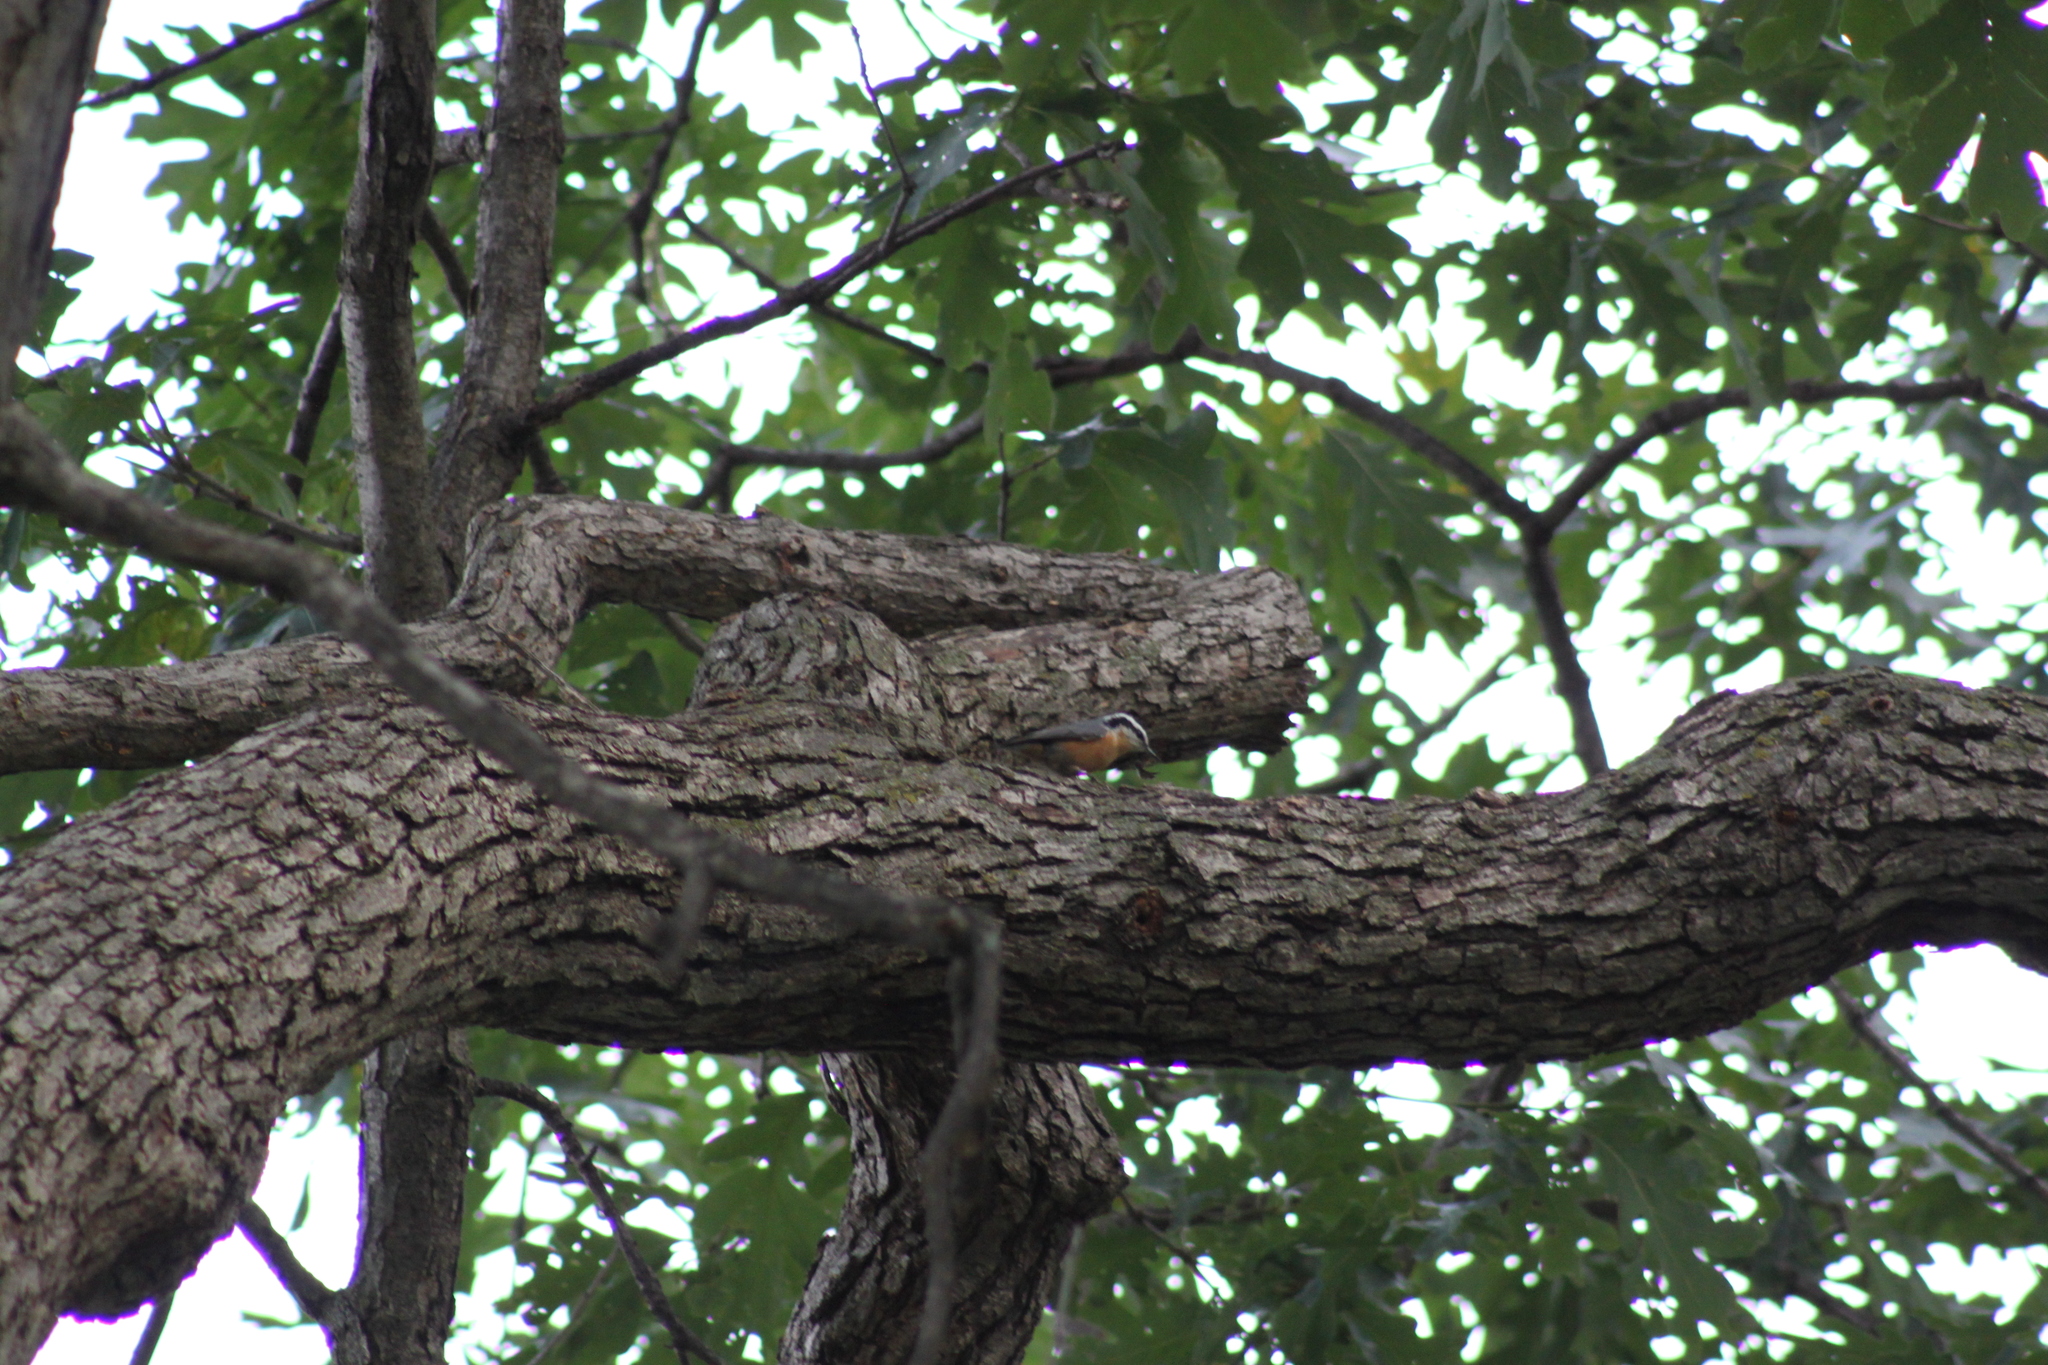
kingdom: Animalia
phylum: Chordata
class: Aves
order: Passeriformes
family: Sittidae
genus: Sitta
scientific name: Sitta canadensis
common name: Red-breasted nuthatch
